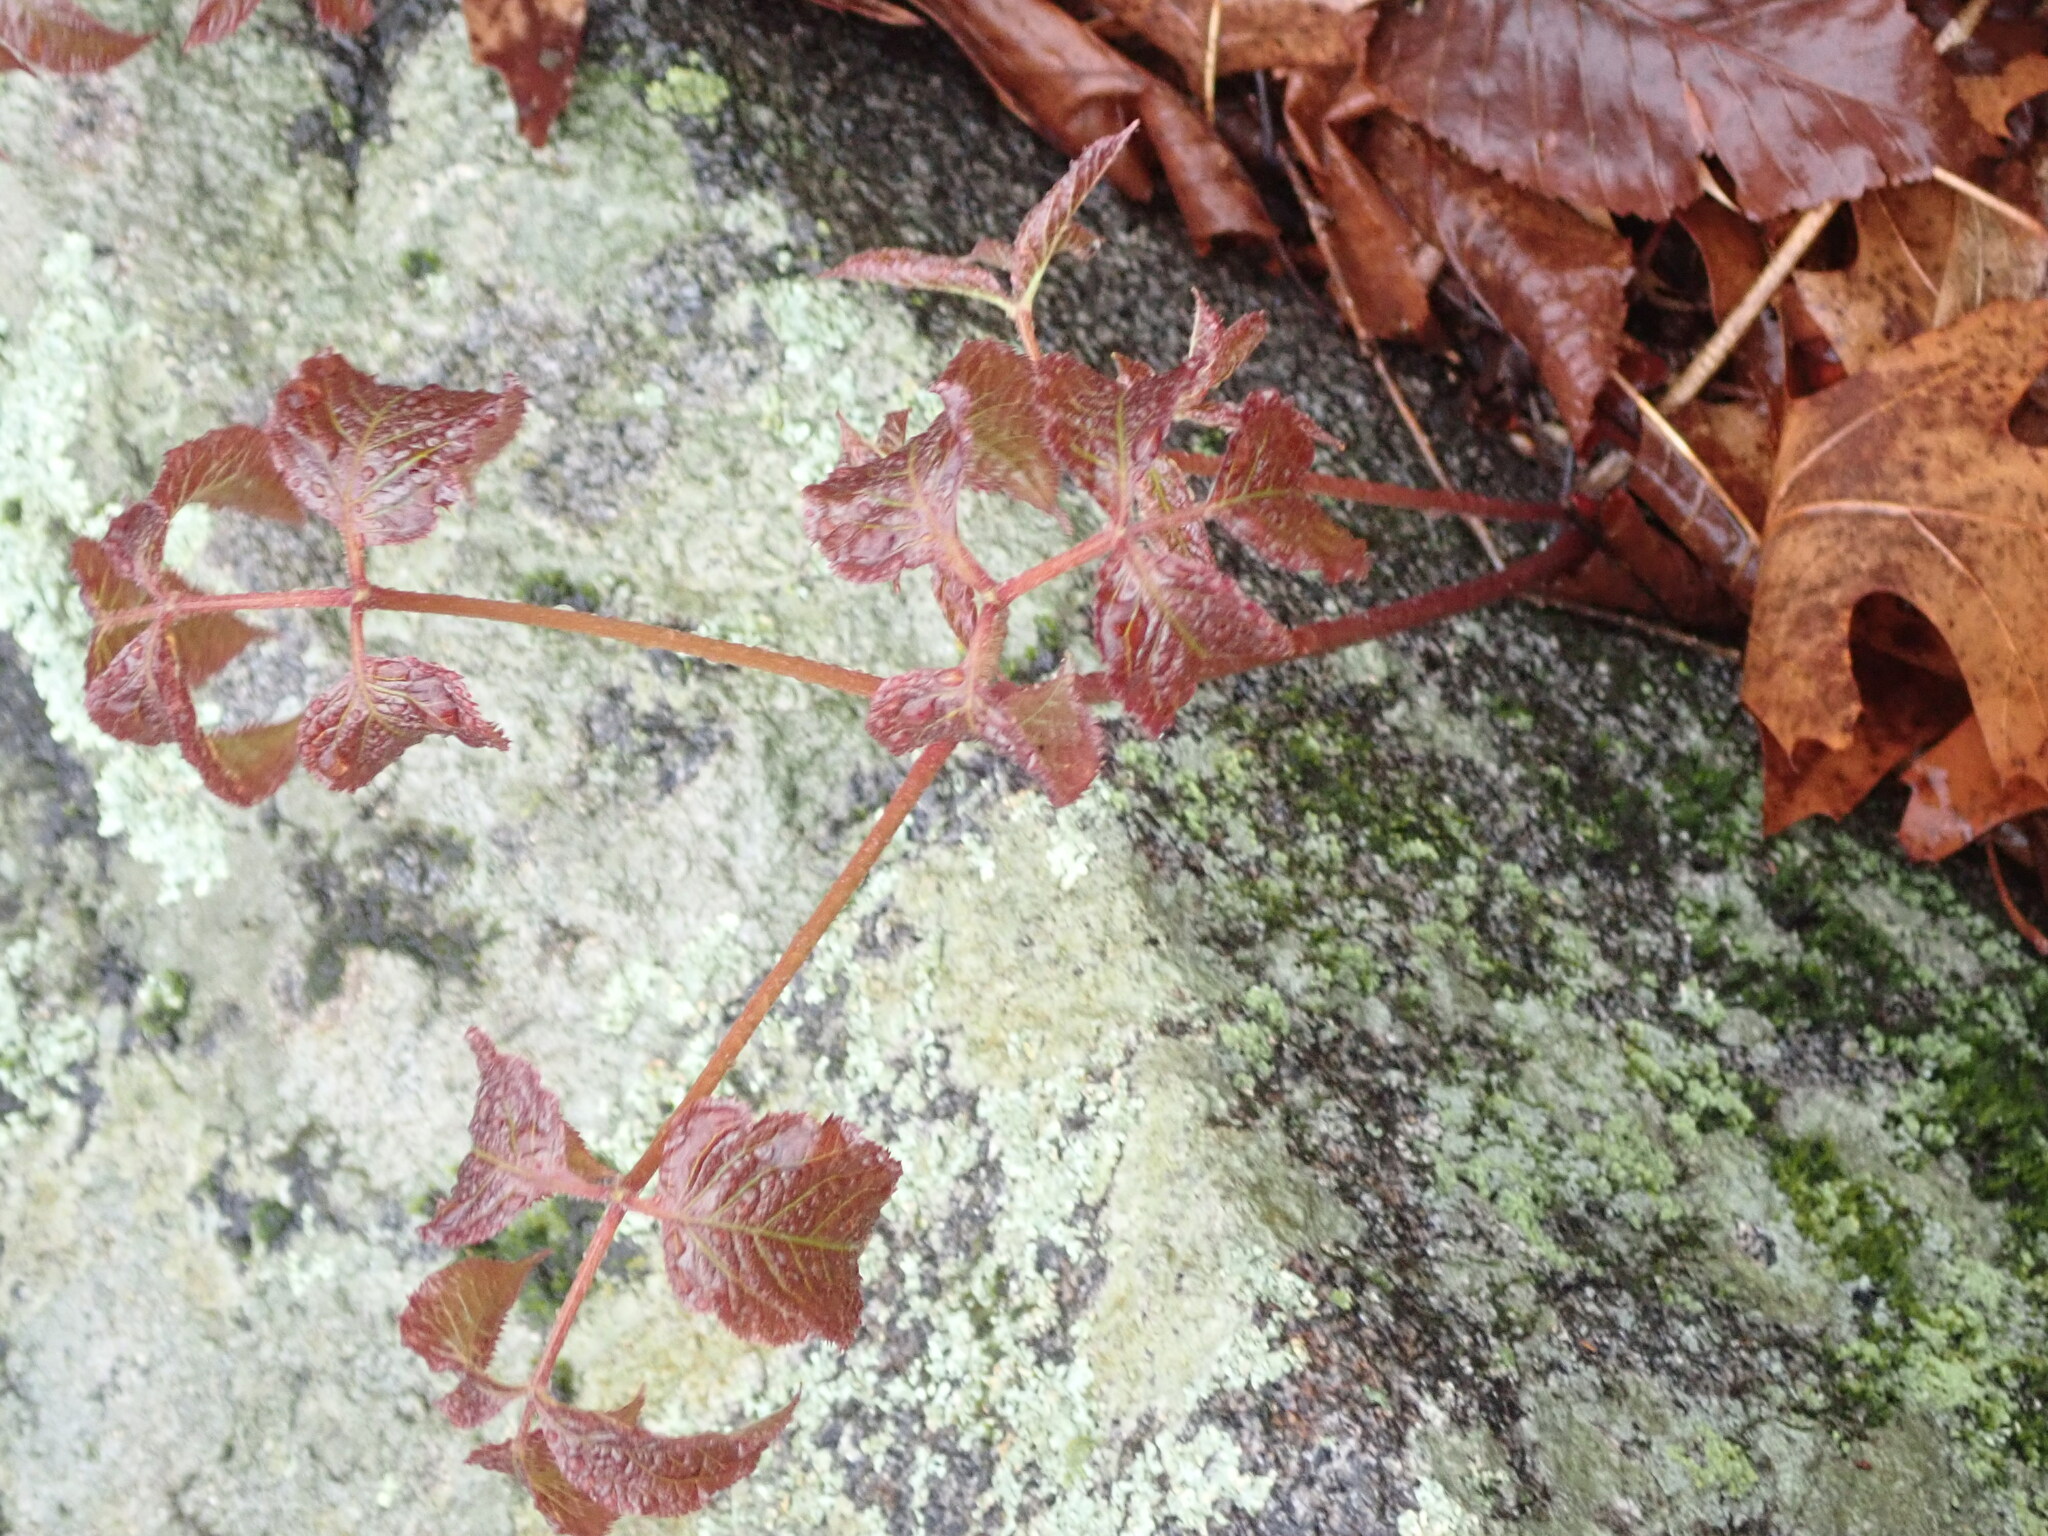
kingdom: Plantae
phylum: Tracheophyta
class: Magnoliopsida
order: Apiales
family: Araliaceae
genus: Aralia
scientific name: Aralia nudicaulis
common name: Wild sarsaparilla
